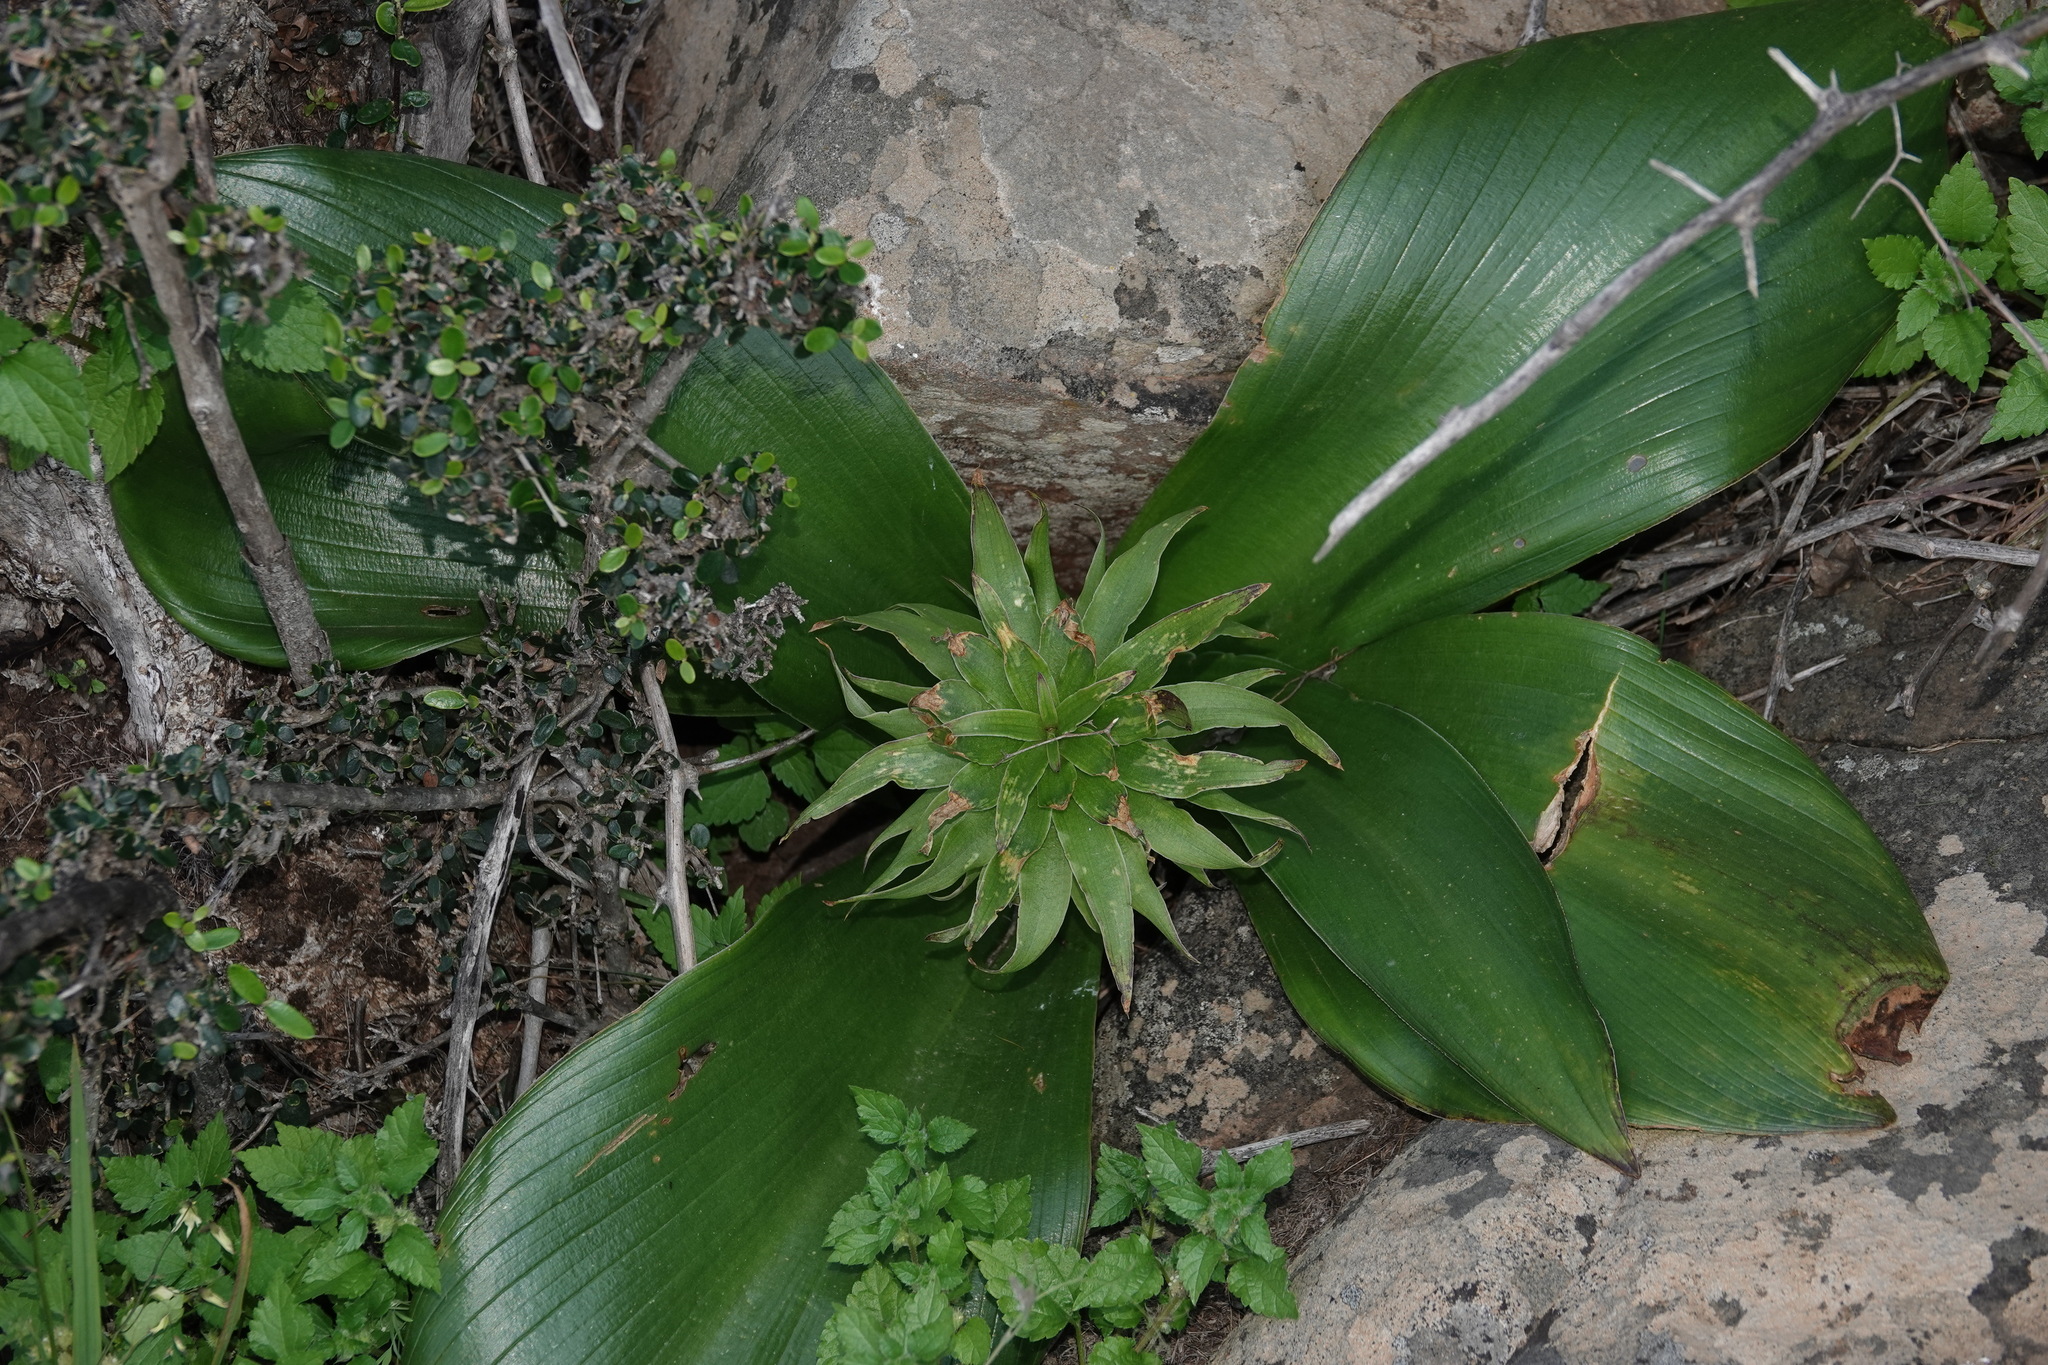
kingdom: Plantae
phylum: Tracheophyta
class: Liliopsida
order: Asparagales
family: Asparagaceae
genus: Eucomis
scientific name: Eucomis regia
